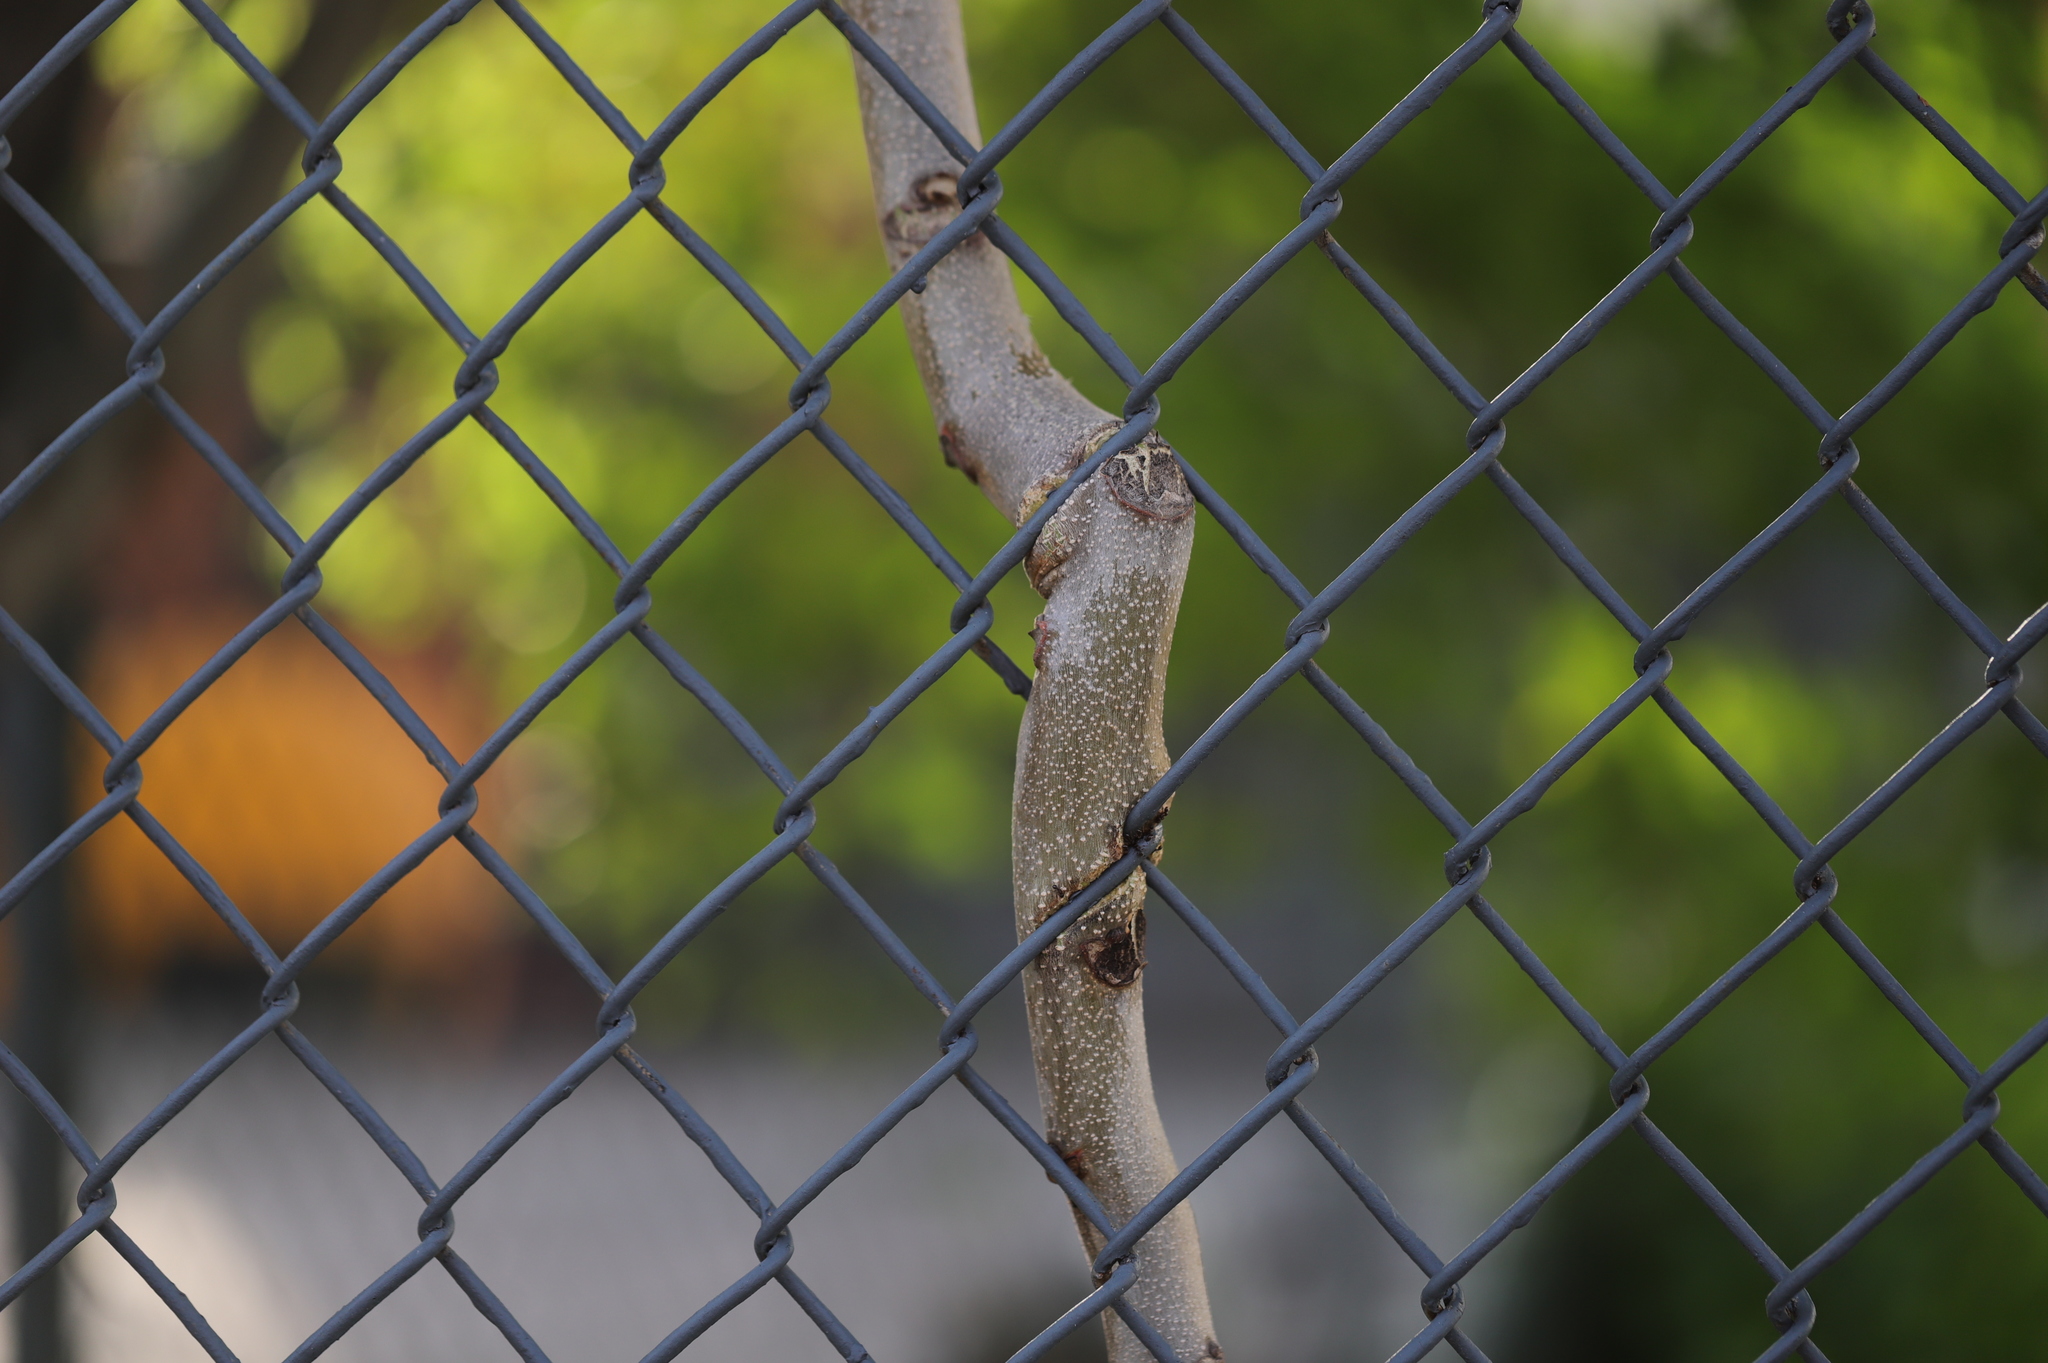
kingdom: Plantae
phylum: Tracheophyta
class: Magnoliopsida
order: Sapindales
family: Simaroubaceae
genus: Ailanthus
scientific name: Ailanthus altissima
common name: Tree-of-heaven
